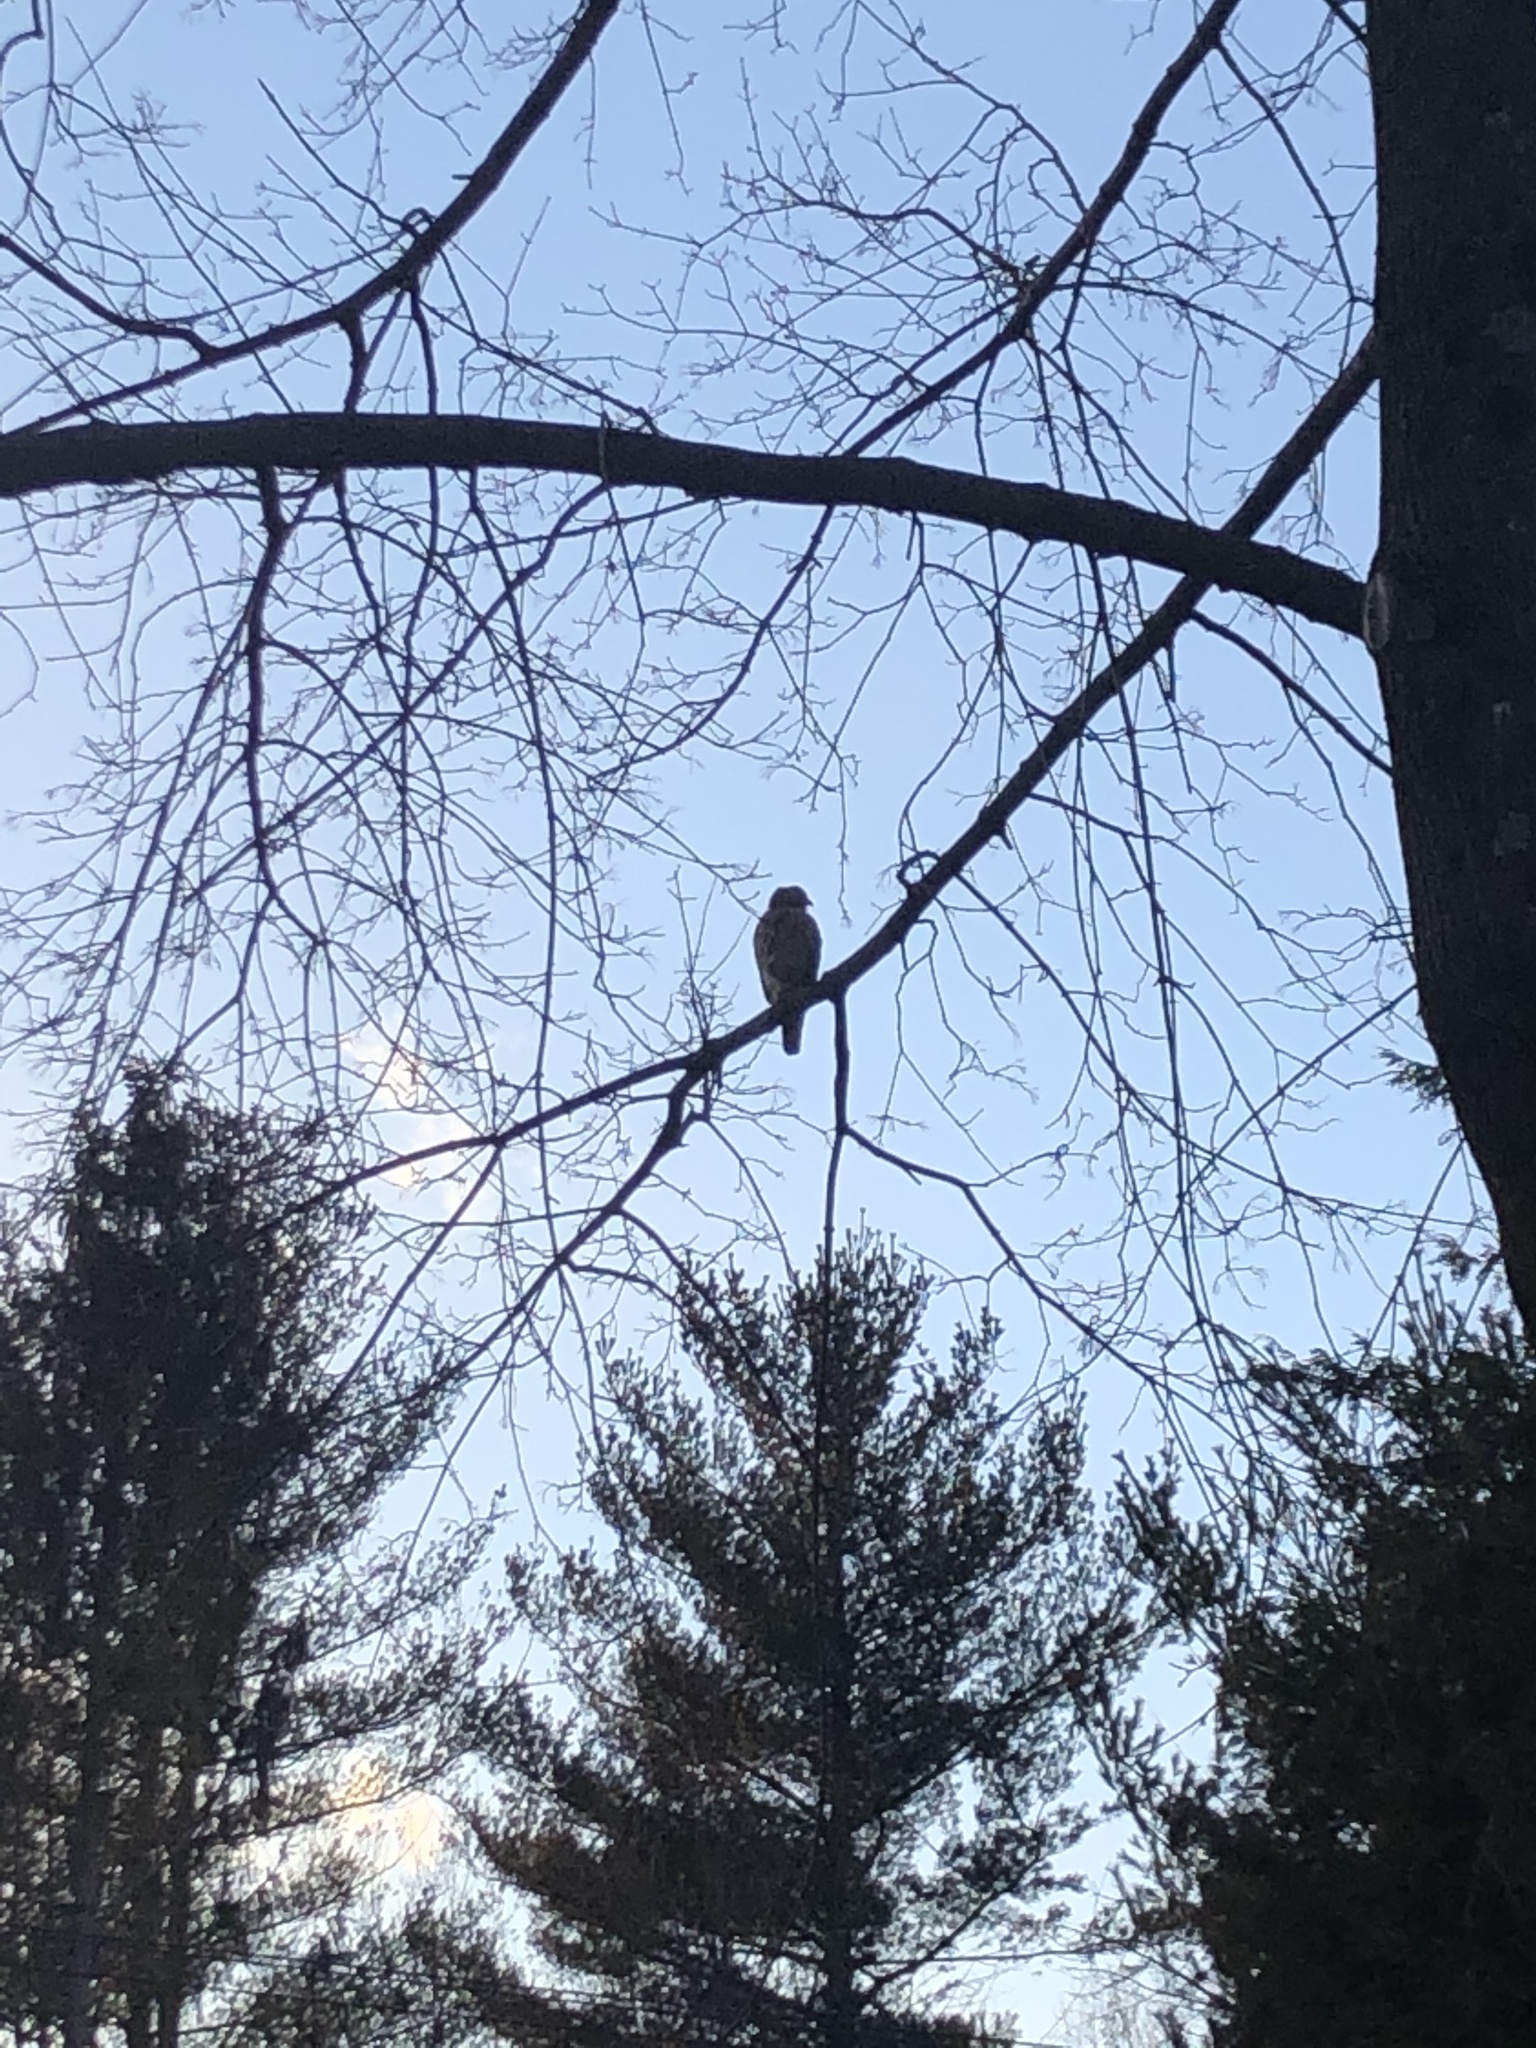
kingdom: Animalia
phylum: Chordata
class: Aves
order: Accipitriformes
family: Accipitridae
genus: Buteo
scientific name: Buteo lineatus
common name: Red-shouldered hawk
